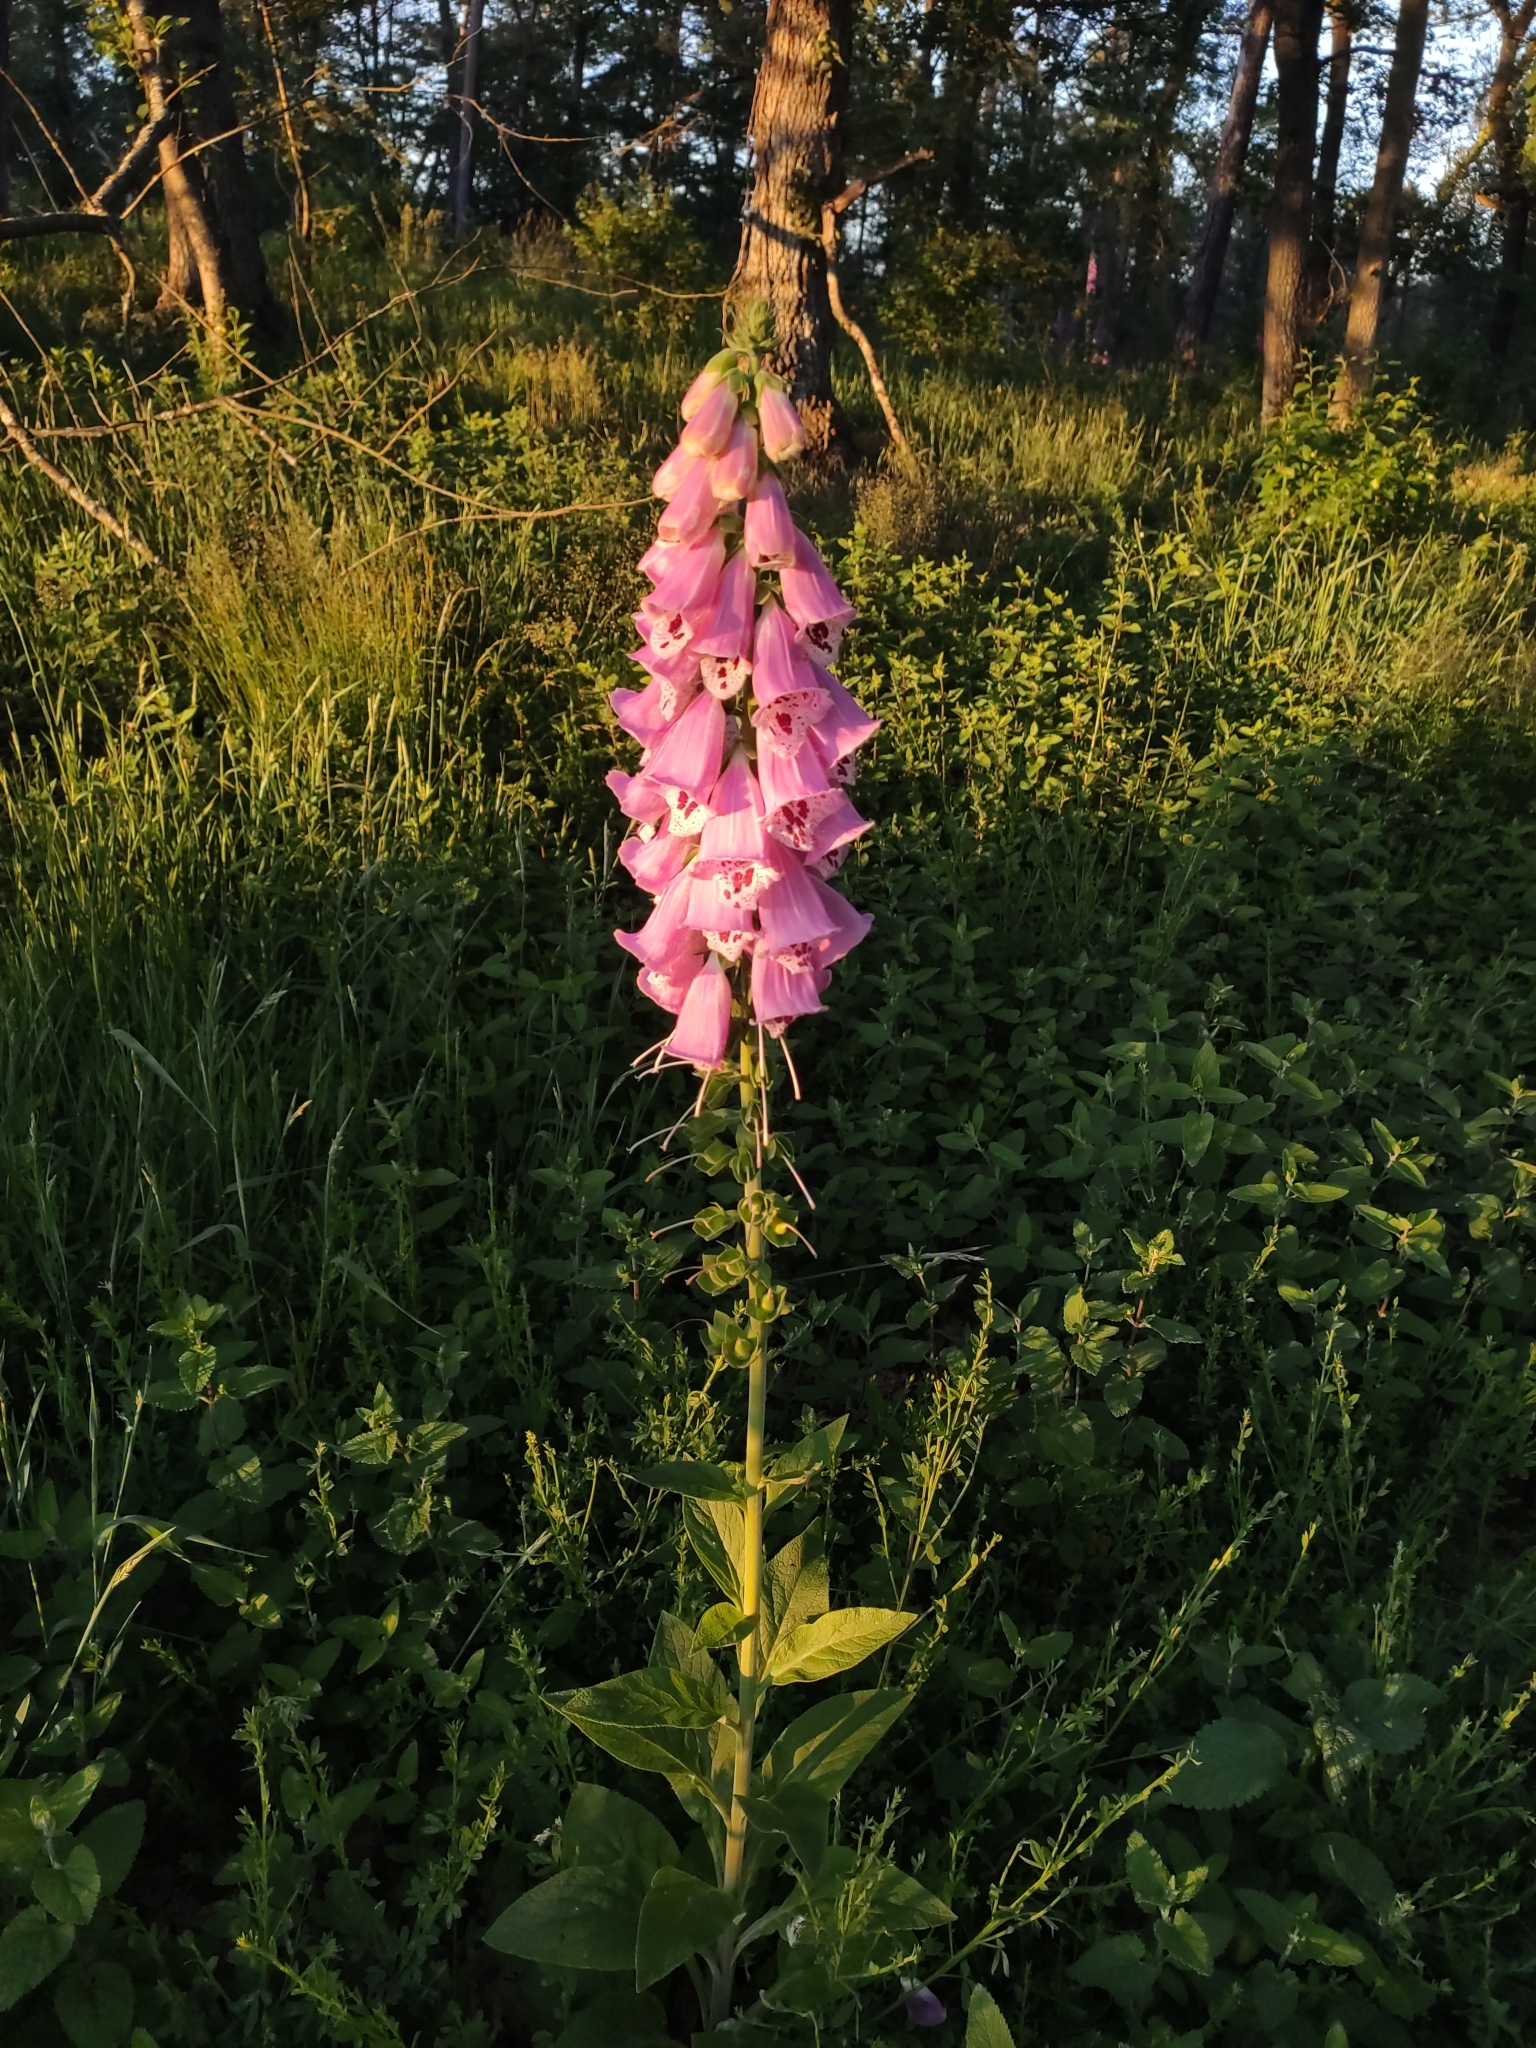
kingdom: Plantae
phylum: Tracheophyta
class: Magnoliopsida
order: Lamiales
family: Plantaginaceae
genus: Digitalis
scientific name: Digitalis purpurea
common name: Foxglove
